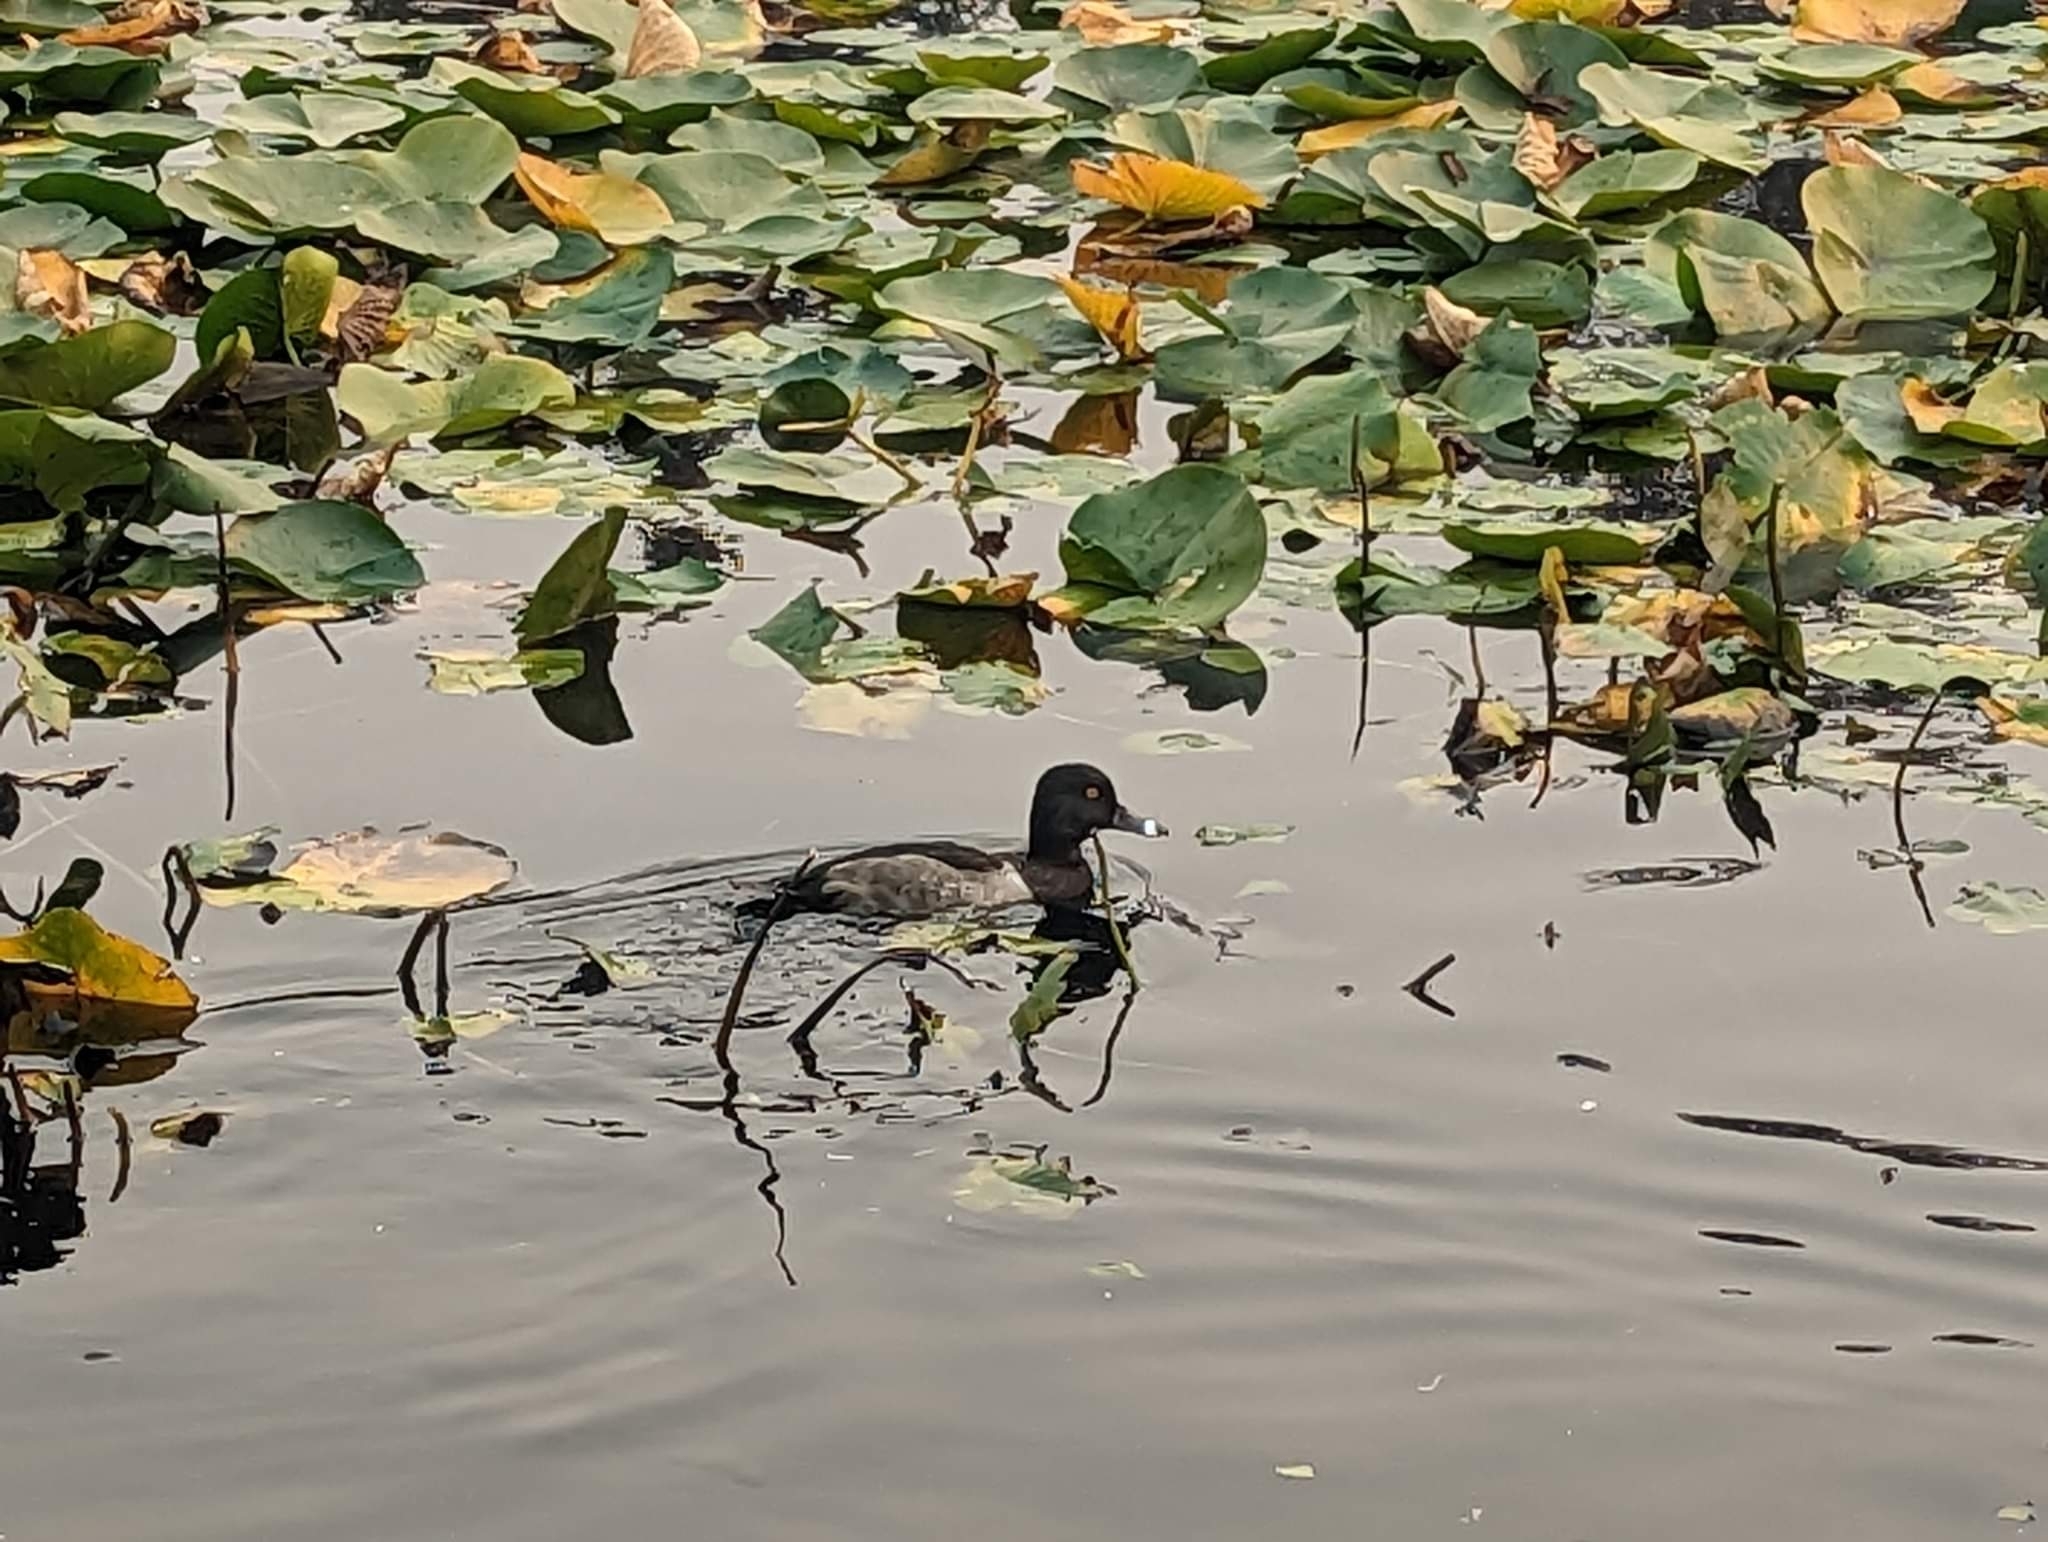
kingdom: Animalia
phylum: Chordata
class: Aves
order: Anseriformes
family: Anatidae
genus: Aythya
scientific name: Aythya collaris
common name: Ring-necked duck
